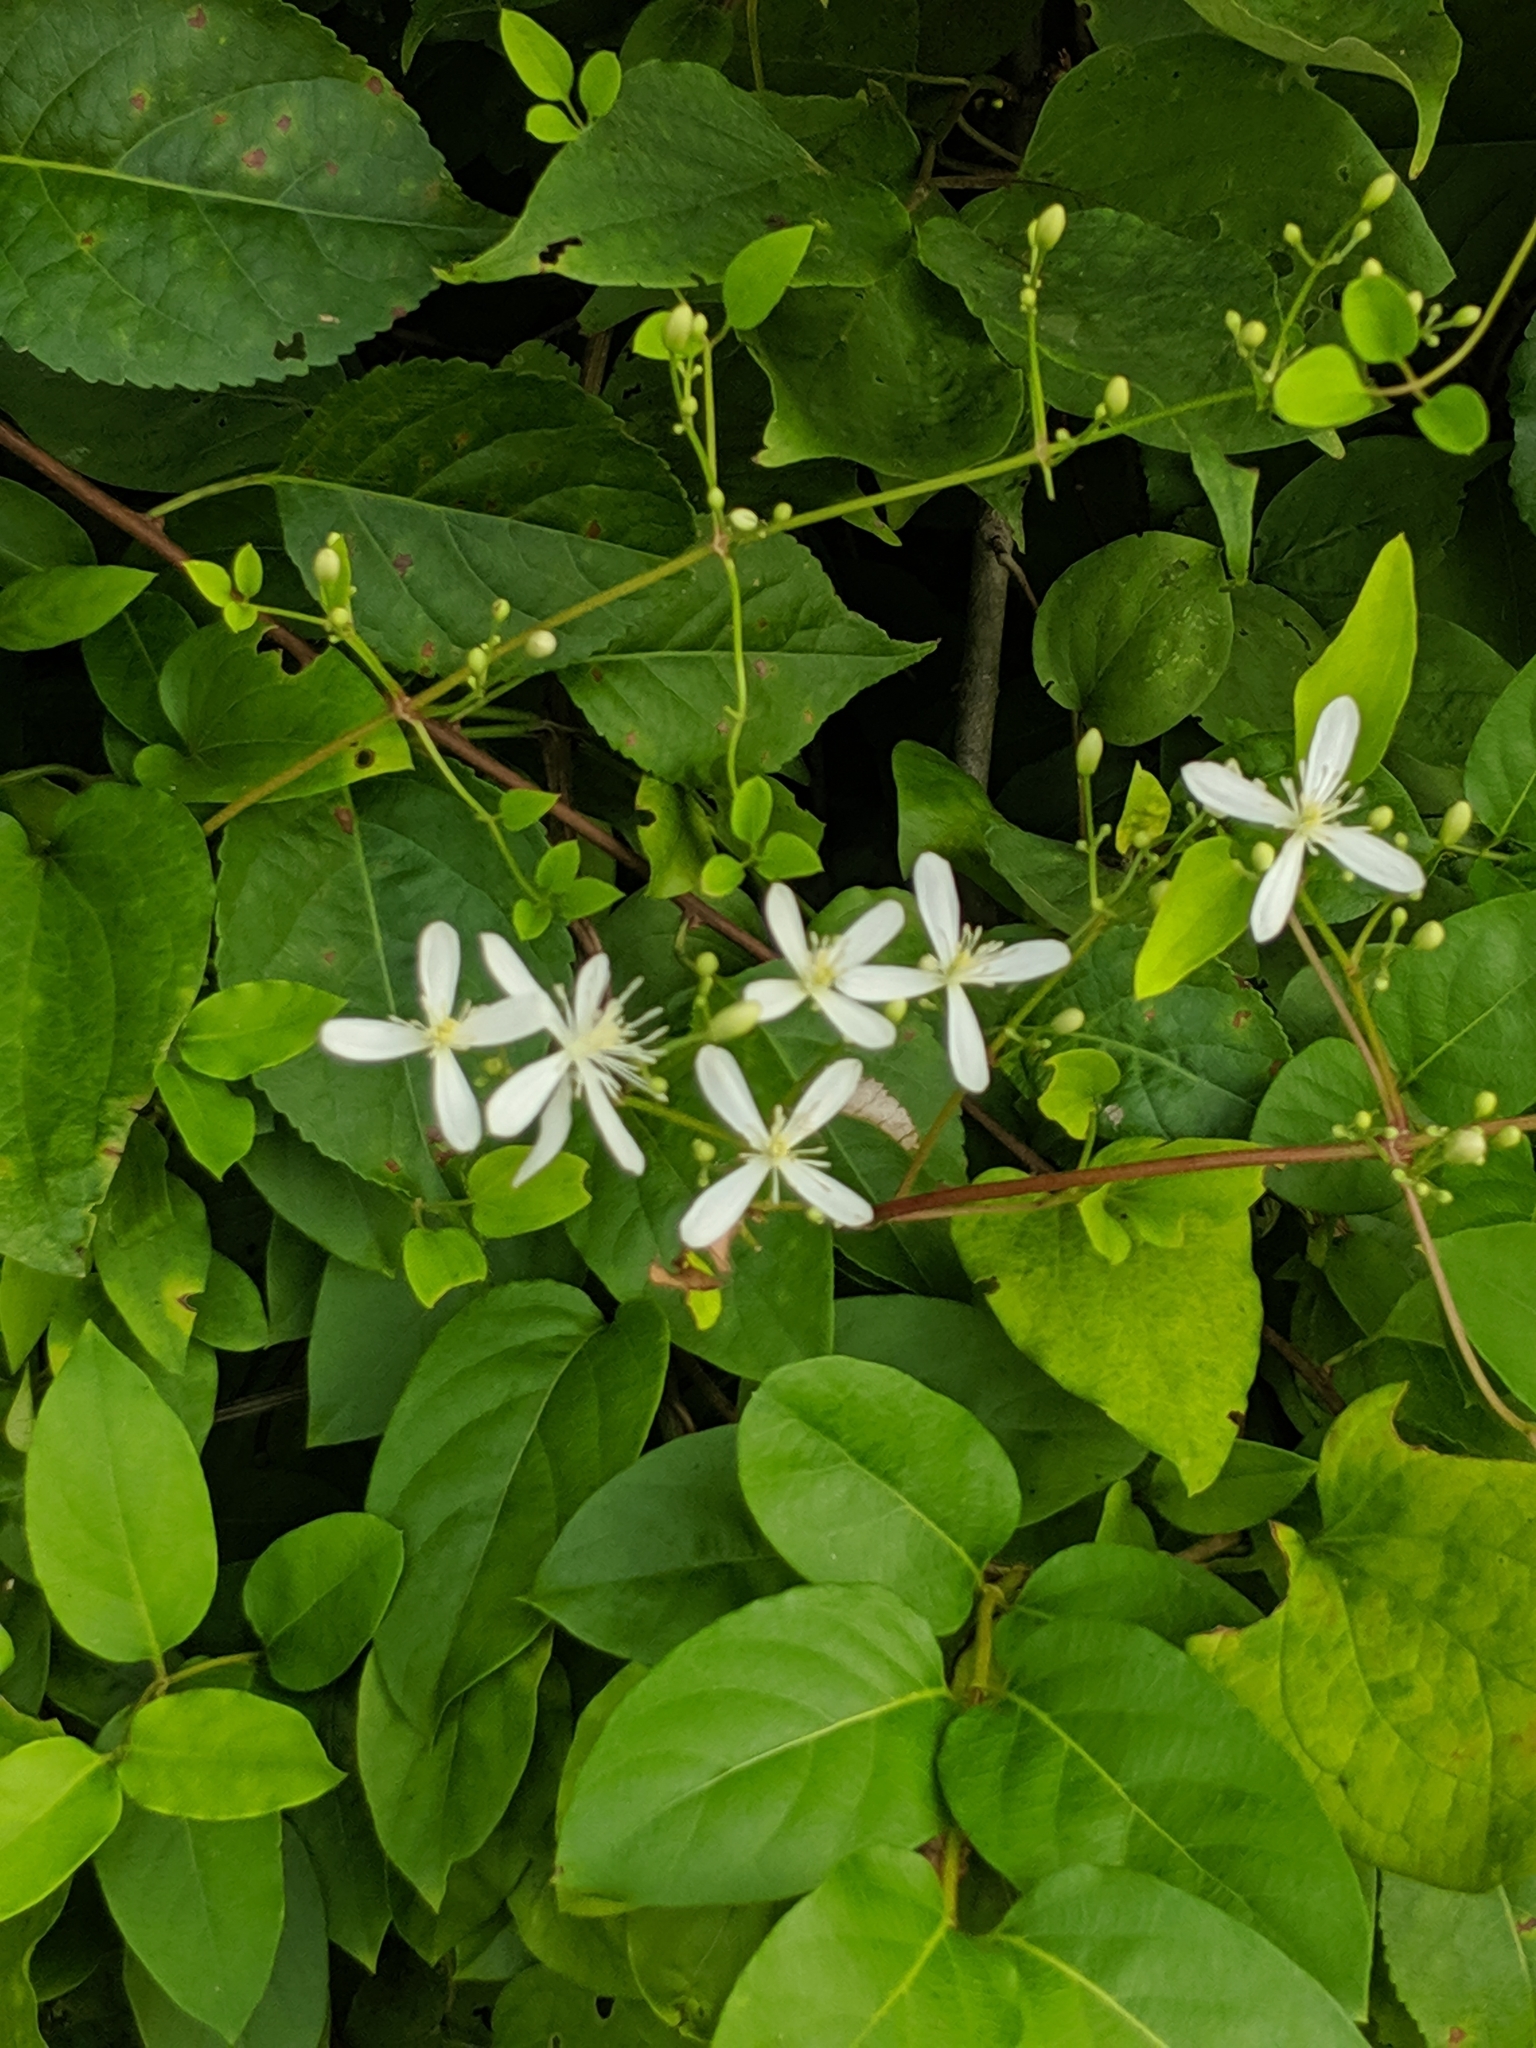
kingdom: Plantae
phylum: Tracheophyta
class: Magnoliopsida
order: Ranunculales
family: Ranunculaceae
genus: Clematis
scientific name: Clematis terniflora
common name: Sweet autumn clematis
